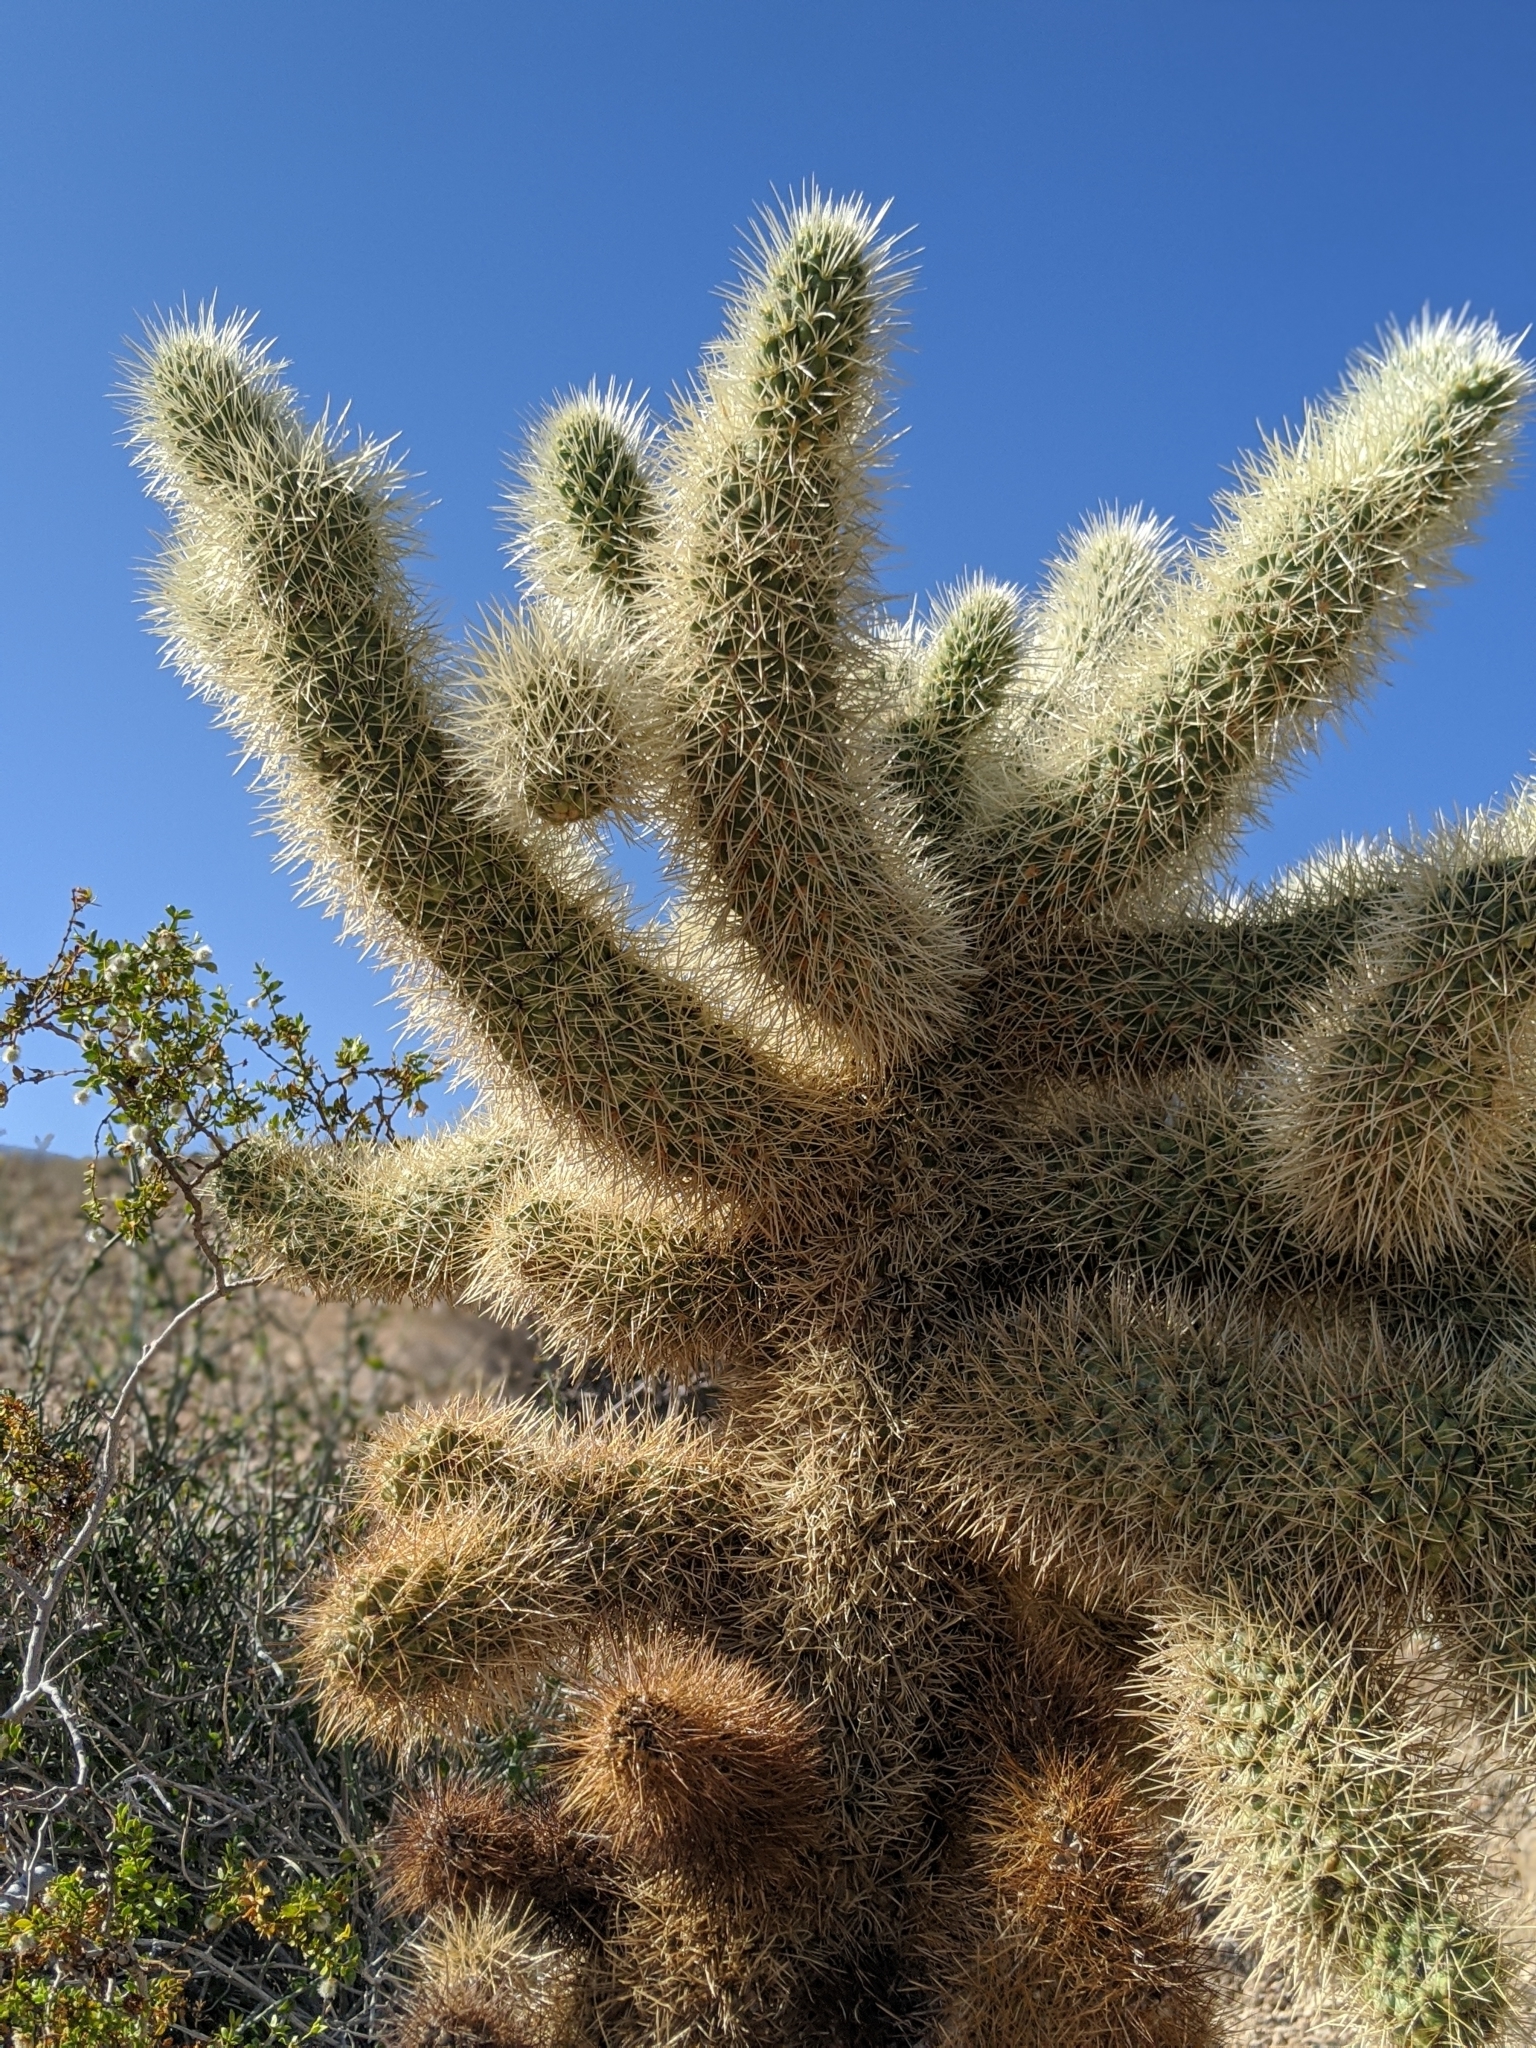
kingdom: Plantae
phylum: Tracheophyta
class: Magnoliopsida
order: Caryophyllales
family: Cactaceae
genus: Cylindropuntia
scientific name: Cylindropuntia fosbergii
